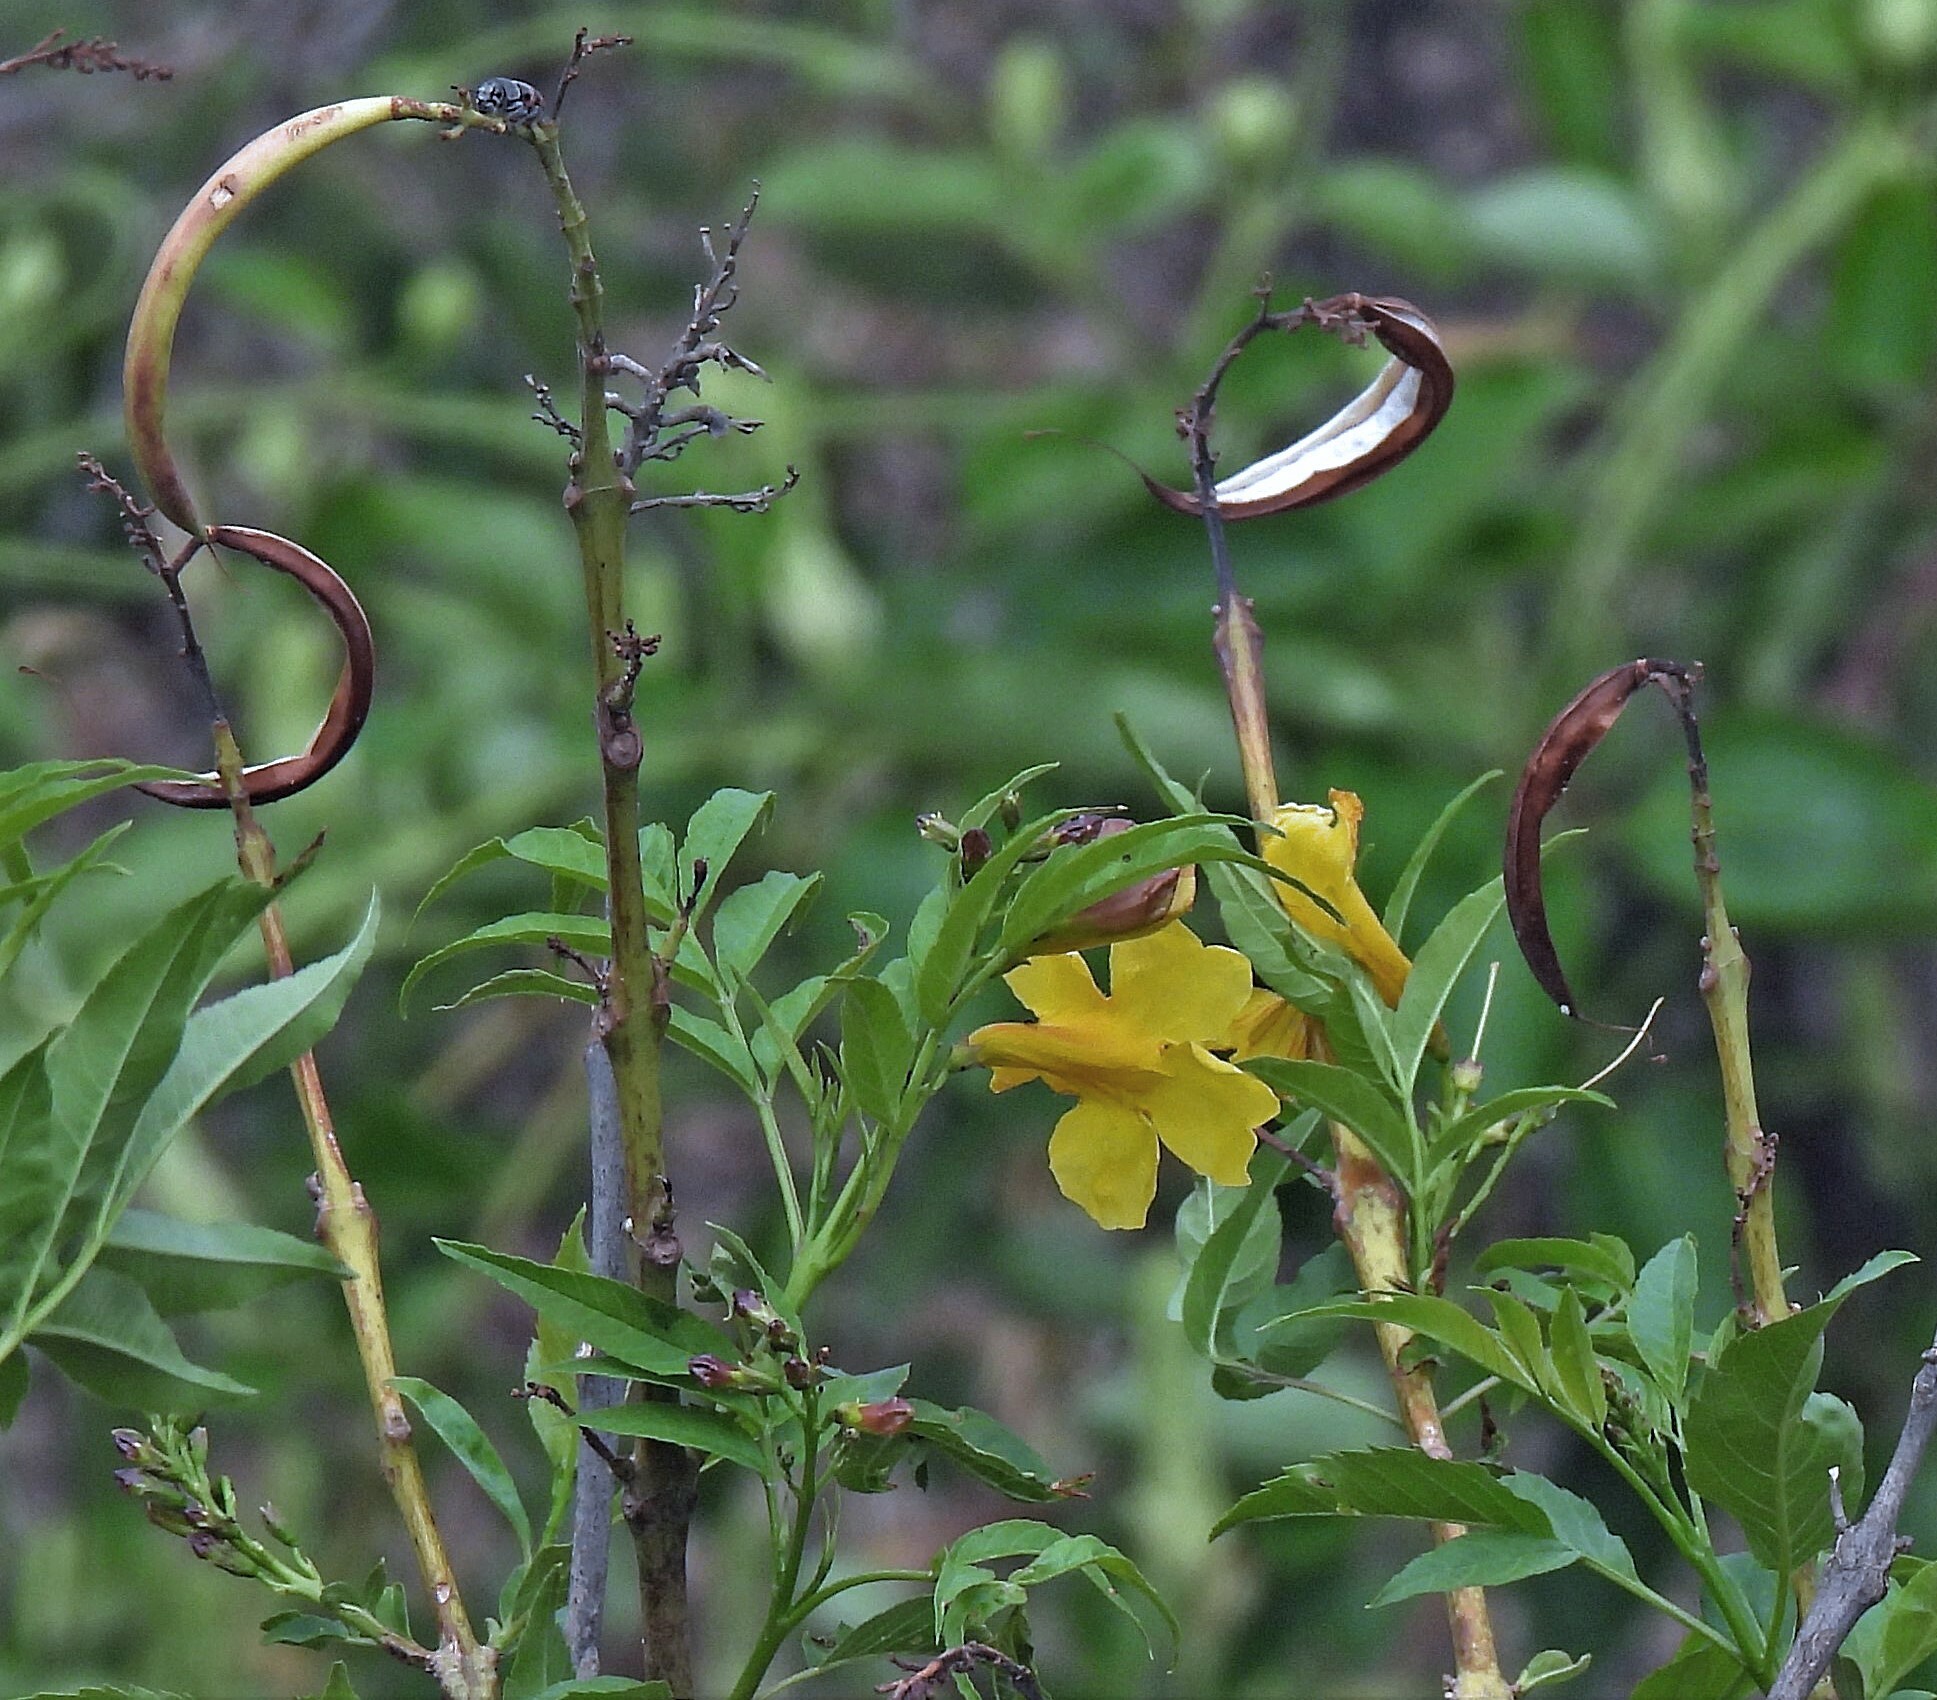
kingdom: Plantae
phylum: Tracheophyta
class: Magnoliopsida
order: Lamiales
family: Bignoniaceae
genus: Tecoma
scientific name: Tecoma stans
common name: Yellow trumpetbush
